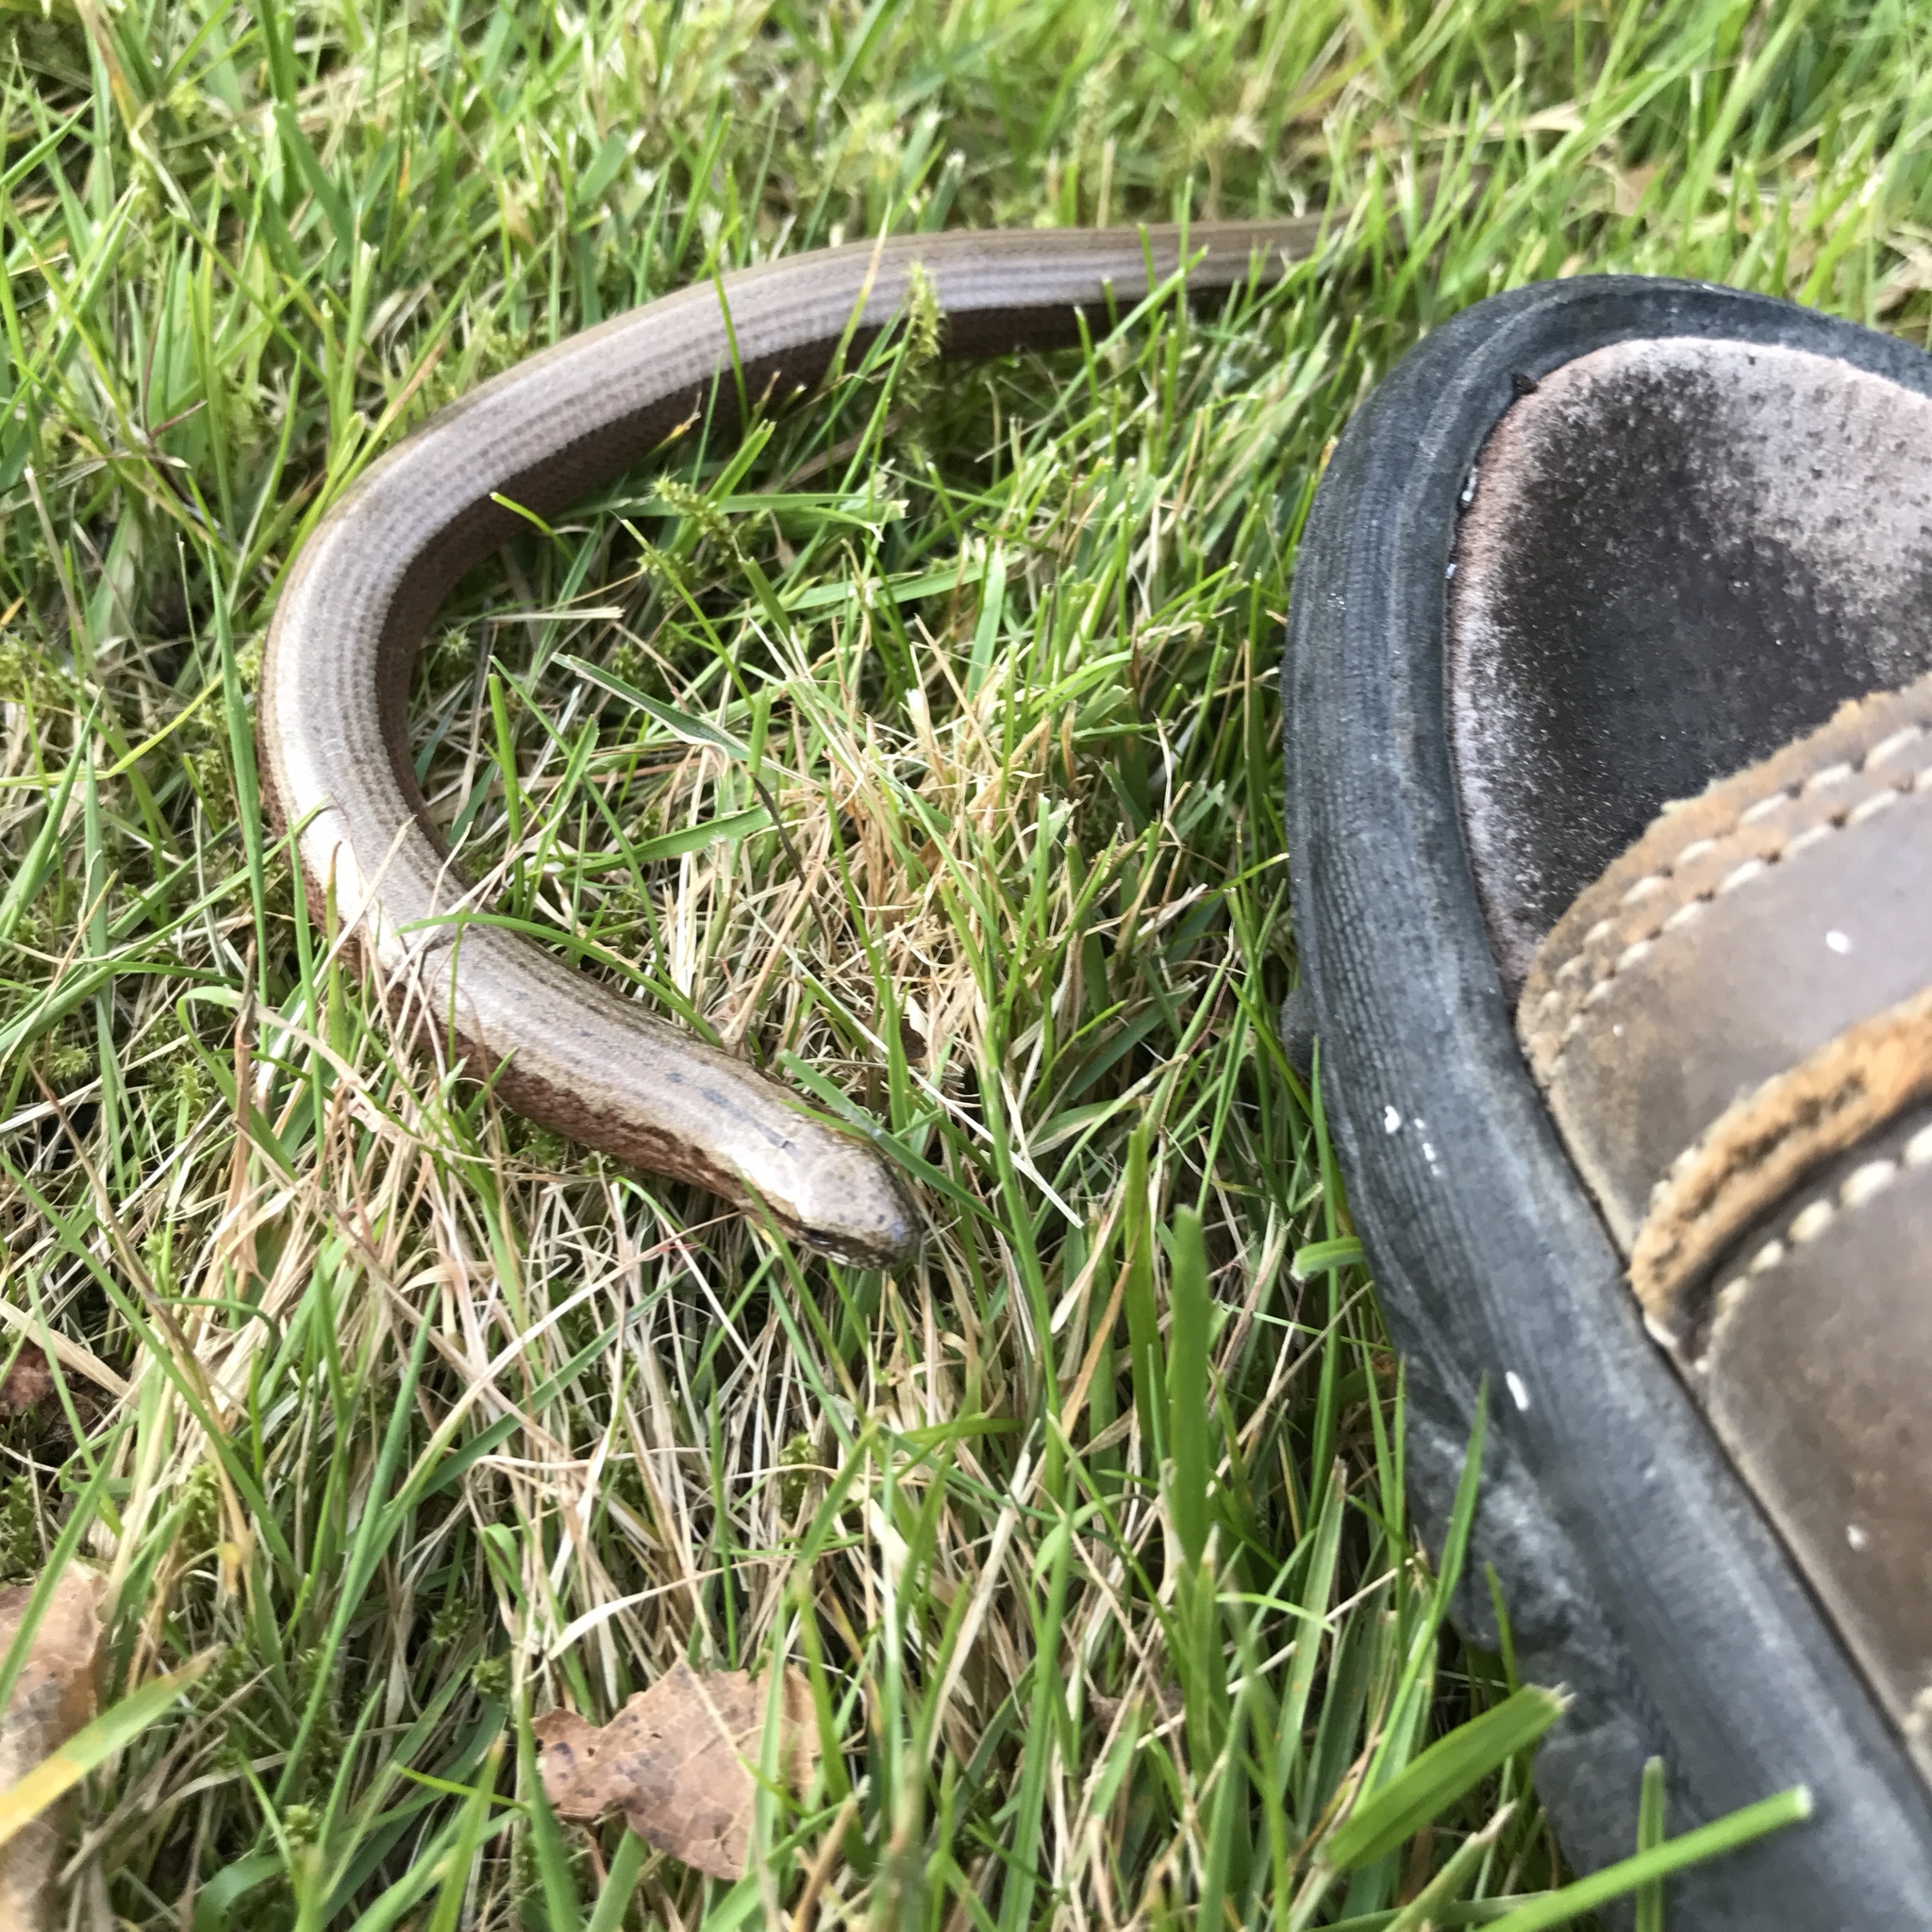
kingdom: Animalia
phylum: Chordata
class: Squamata
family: Anguidae
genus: Anguis
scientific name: Anguis fragilis
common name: Slow worm
